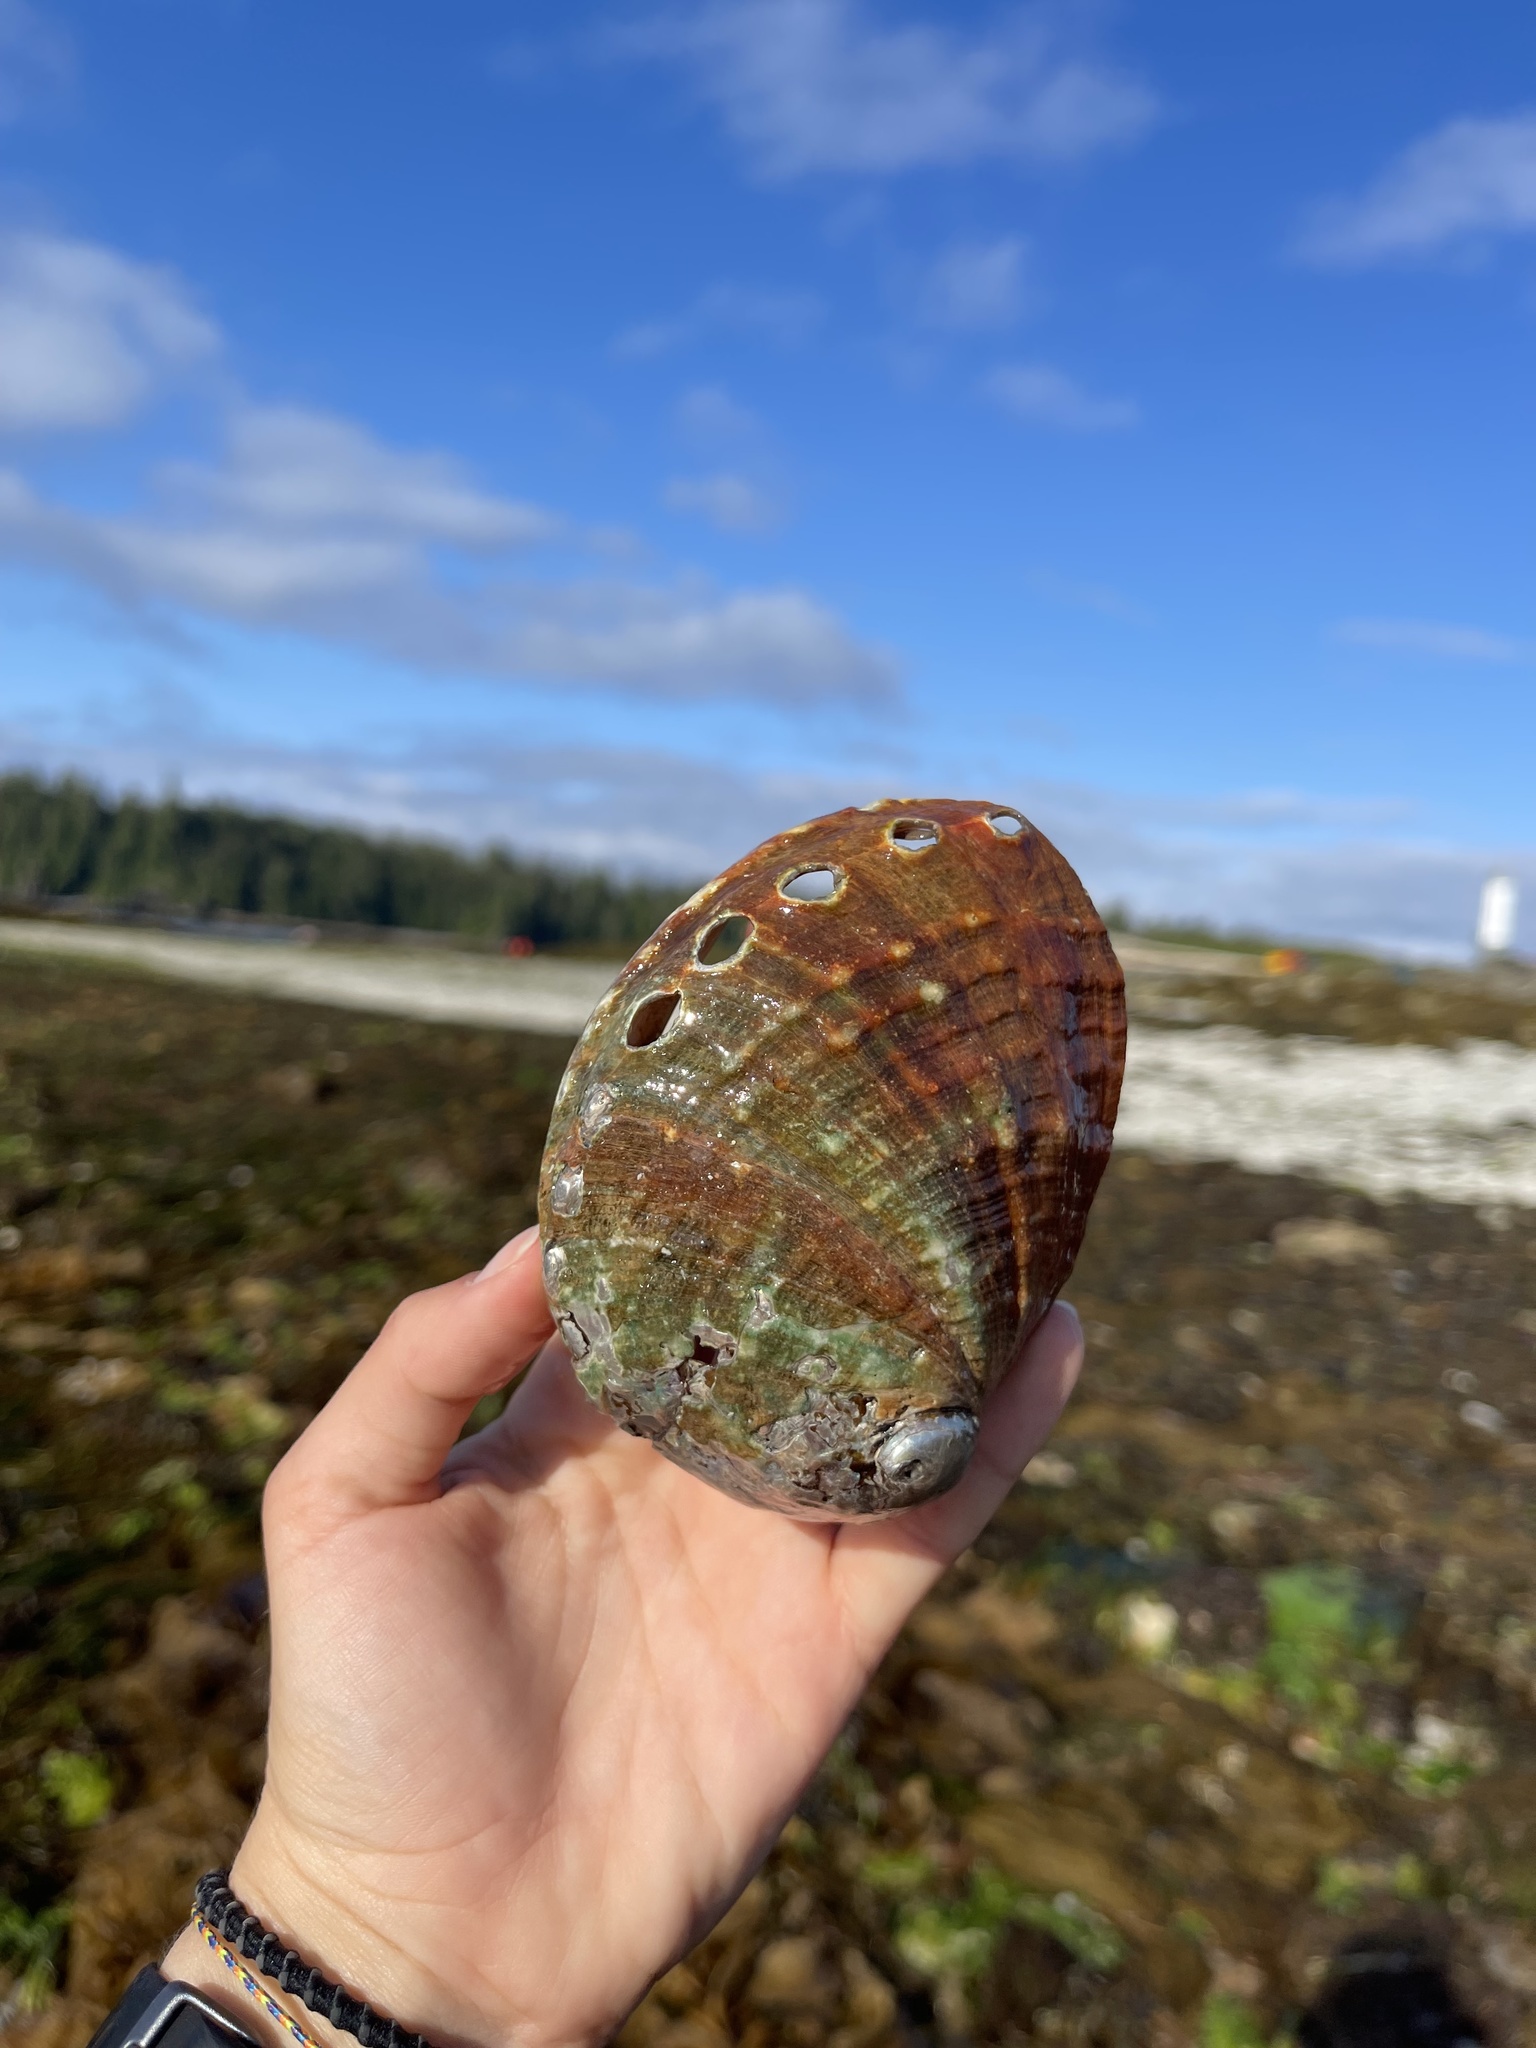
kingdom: Animalia
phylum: Mollusca
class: Gastropoda
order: Lepetellida
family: Haliotidae
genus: Haliotis
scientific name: Haliotis kamtschatkana
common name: Pinto abalone
